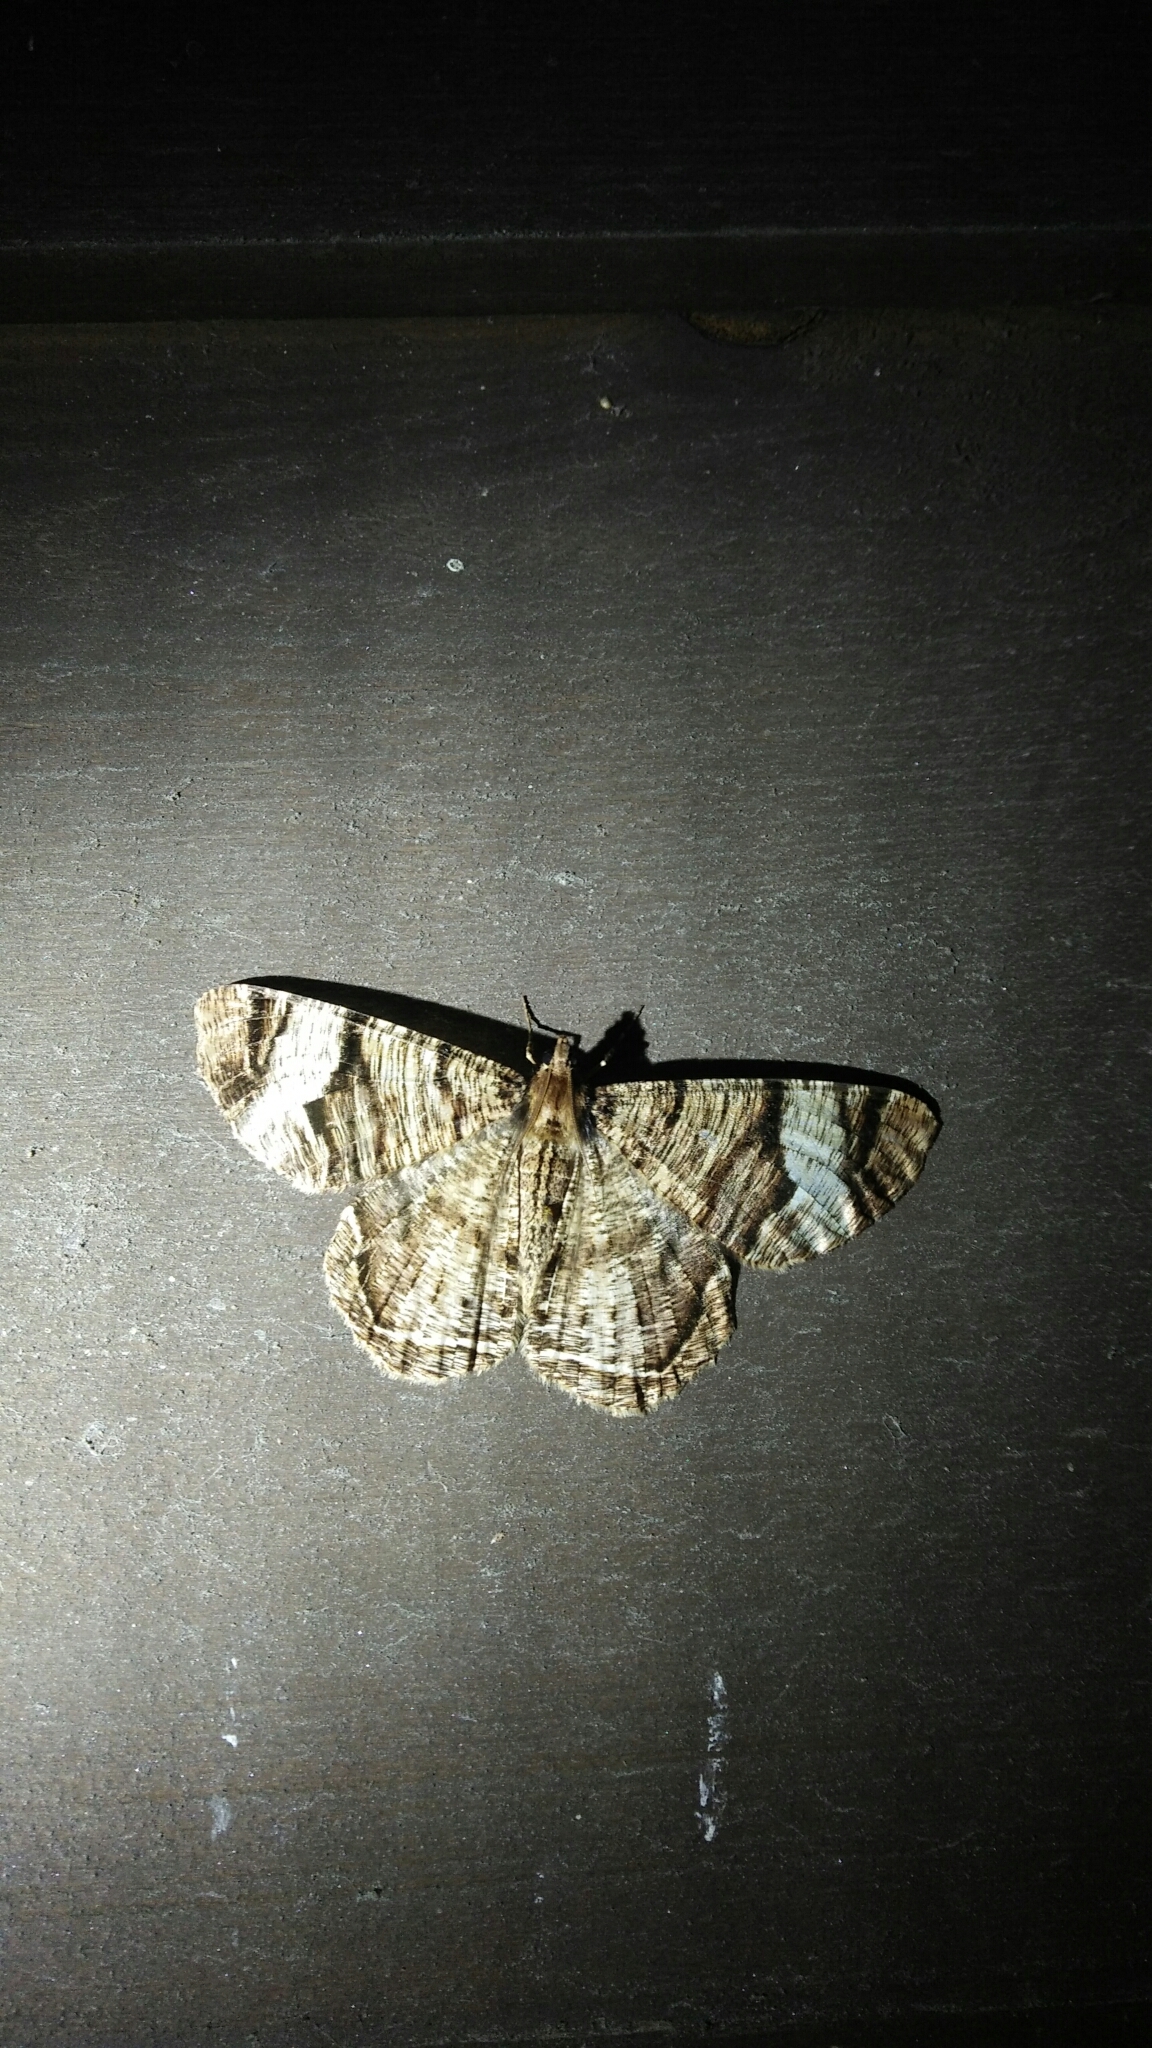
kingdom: Animalia
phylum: Arthropoda
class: Insecta
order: Lepidoptera
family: Geometridae
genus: Xandrames
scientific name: Xandrames latiferaria
